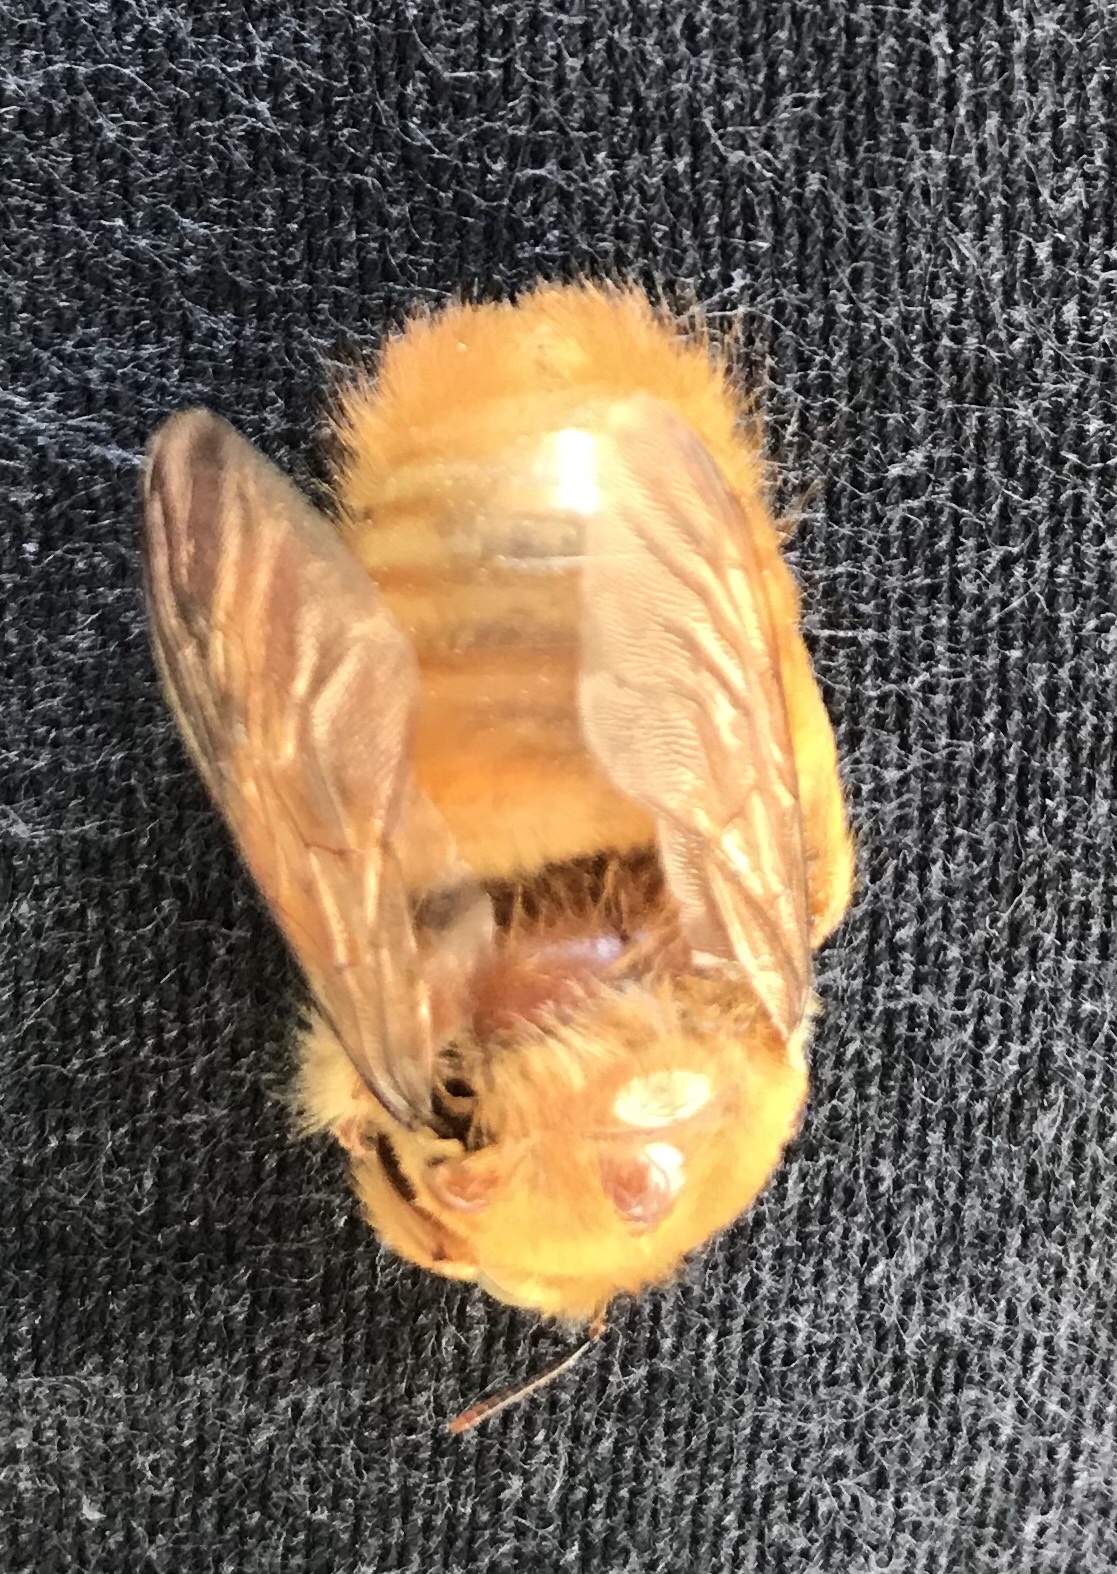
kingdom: Animalia
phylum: Arthropoda
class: Insecta
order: Hymenoptera
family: Apidae
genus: Xylocopa
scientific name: Xylocopa sonorina
